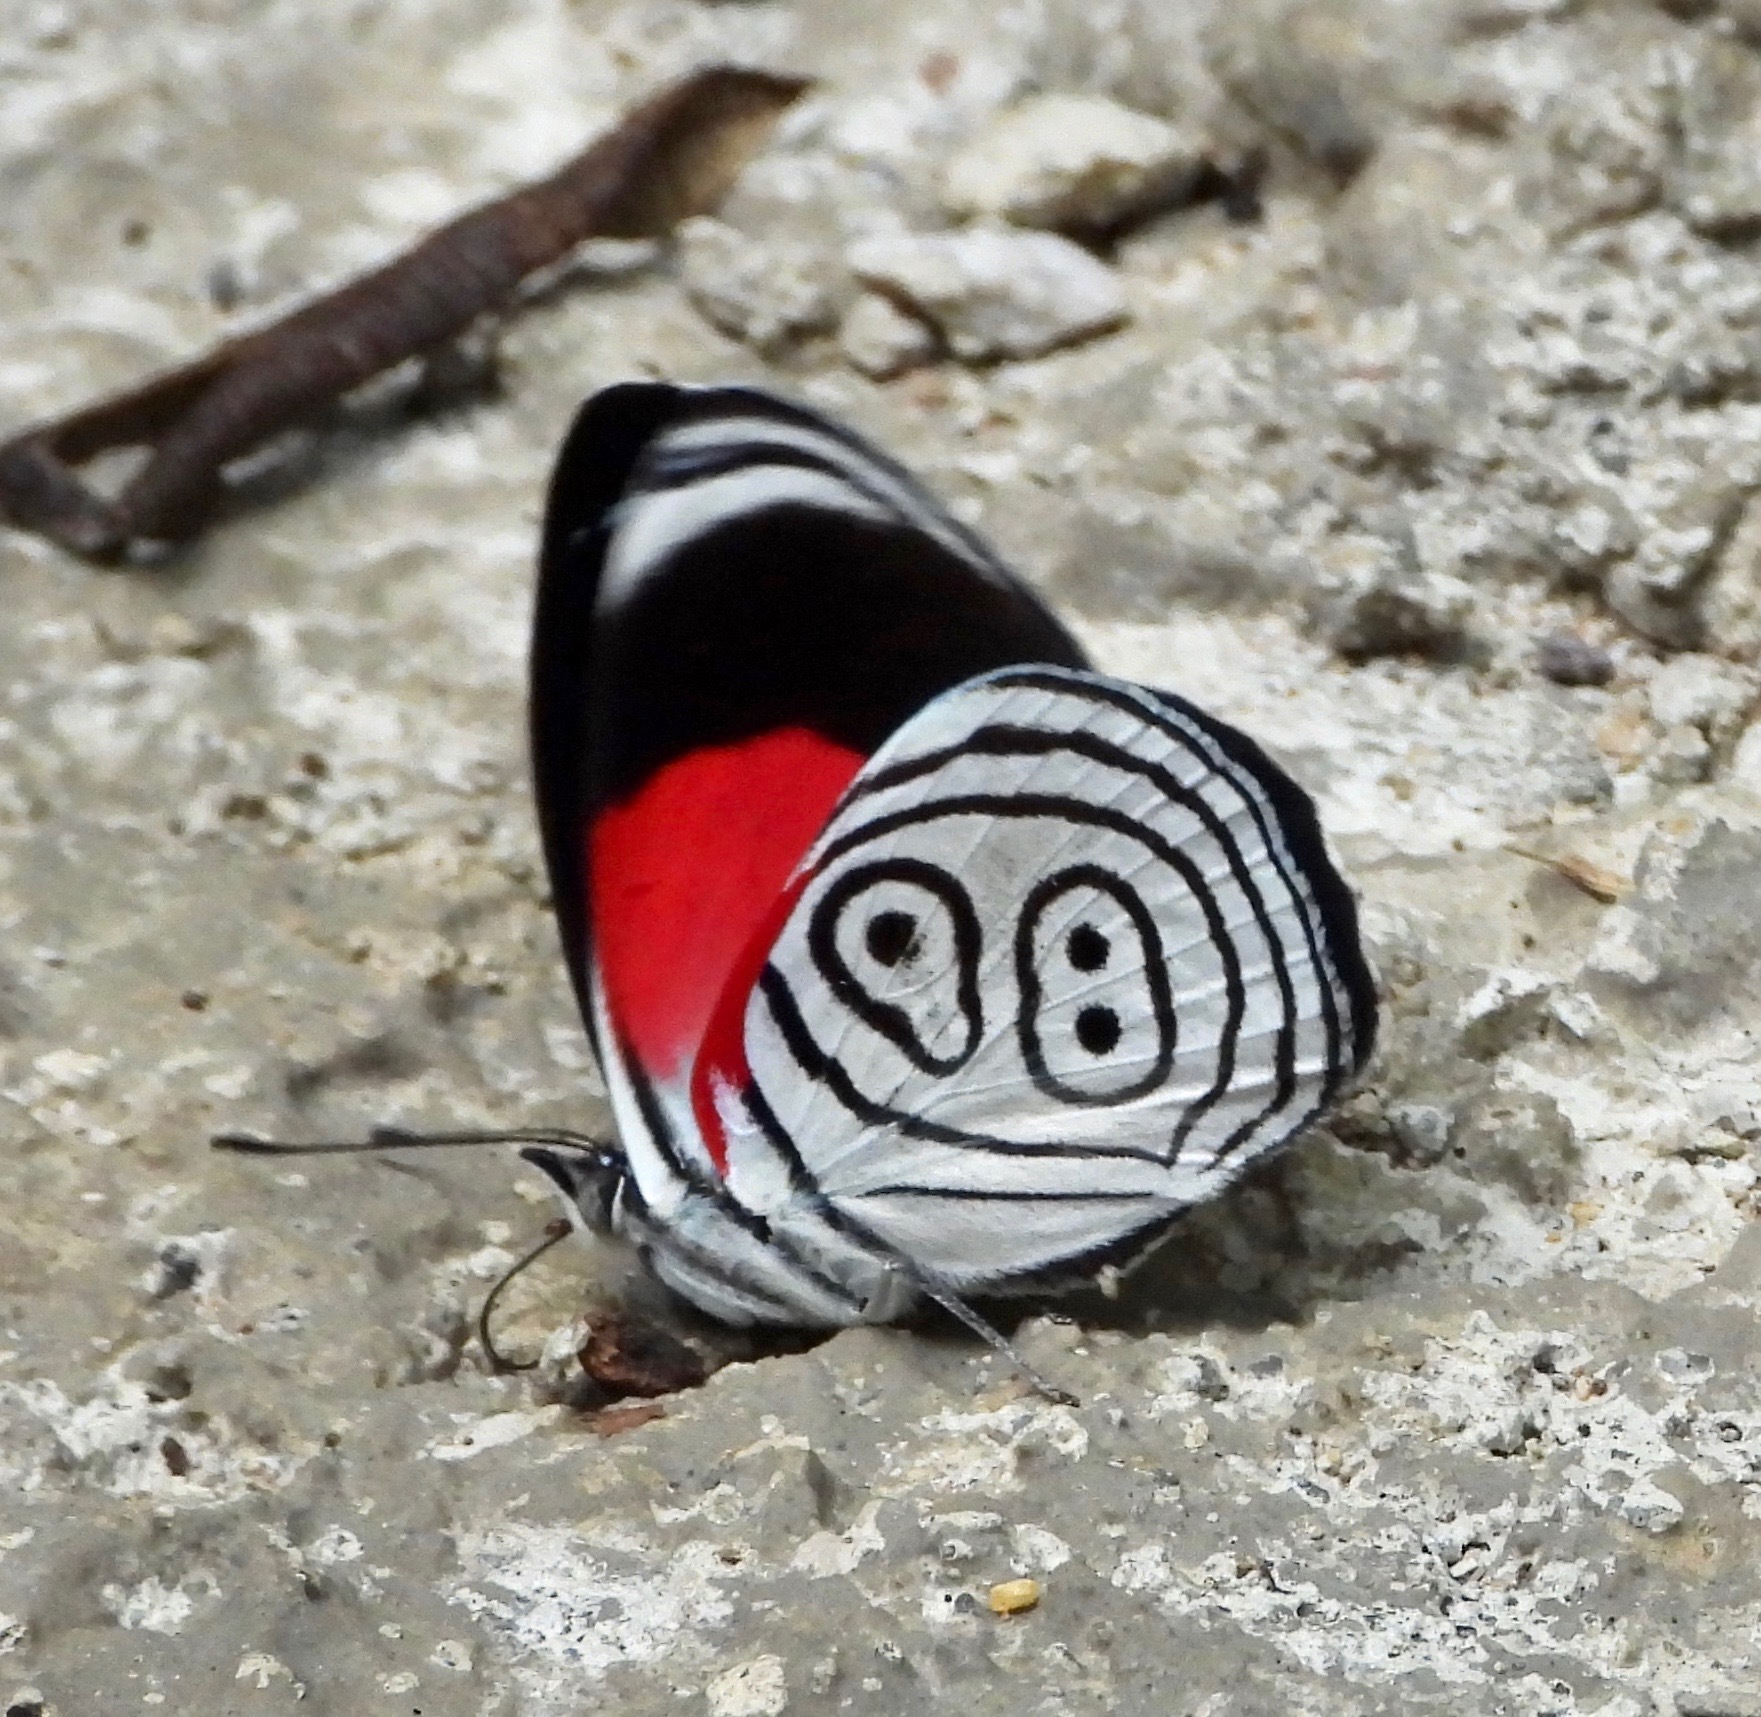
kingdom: Animalia
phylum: Arthropoda
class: Insecta
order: Lepidoptera
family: Nymphalidae
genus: Diaethria
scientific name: Diaethria euclides
